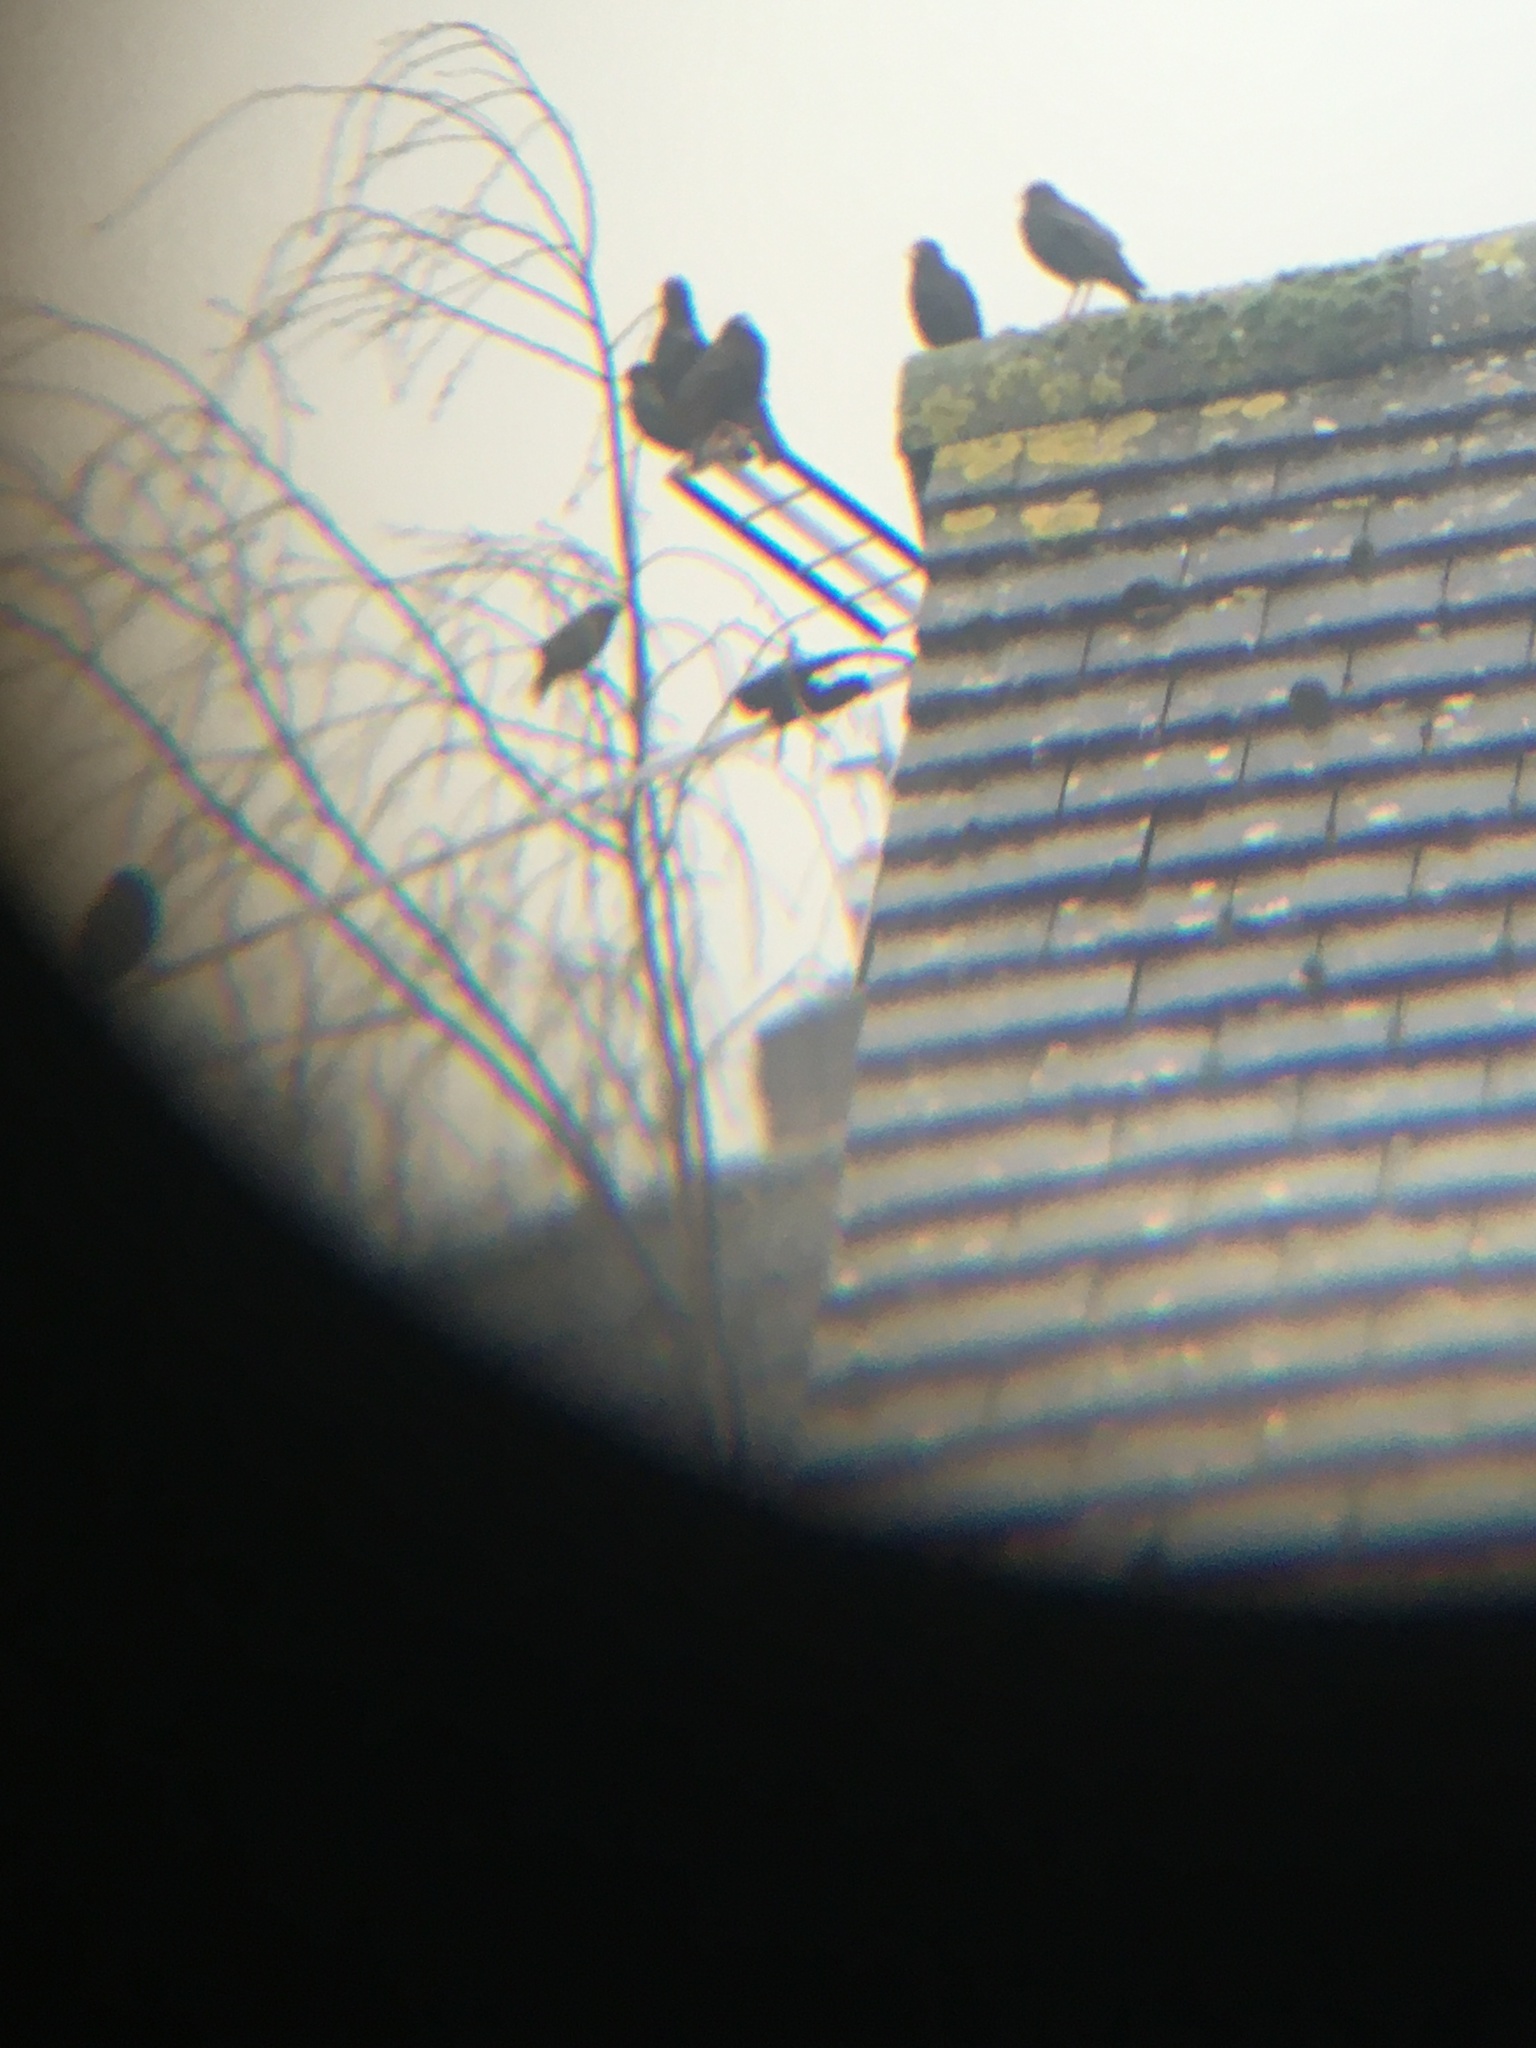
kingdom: Animalia
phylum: Chordata
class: Aves
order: Passeriformes
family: Sturnidae
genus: Sturnus
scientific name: Sturnus vulgaris
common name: Common starling
